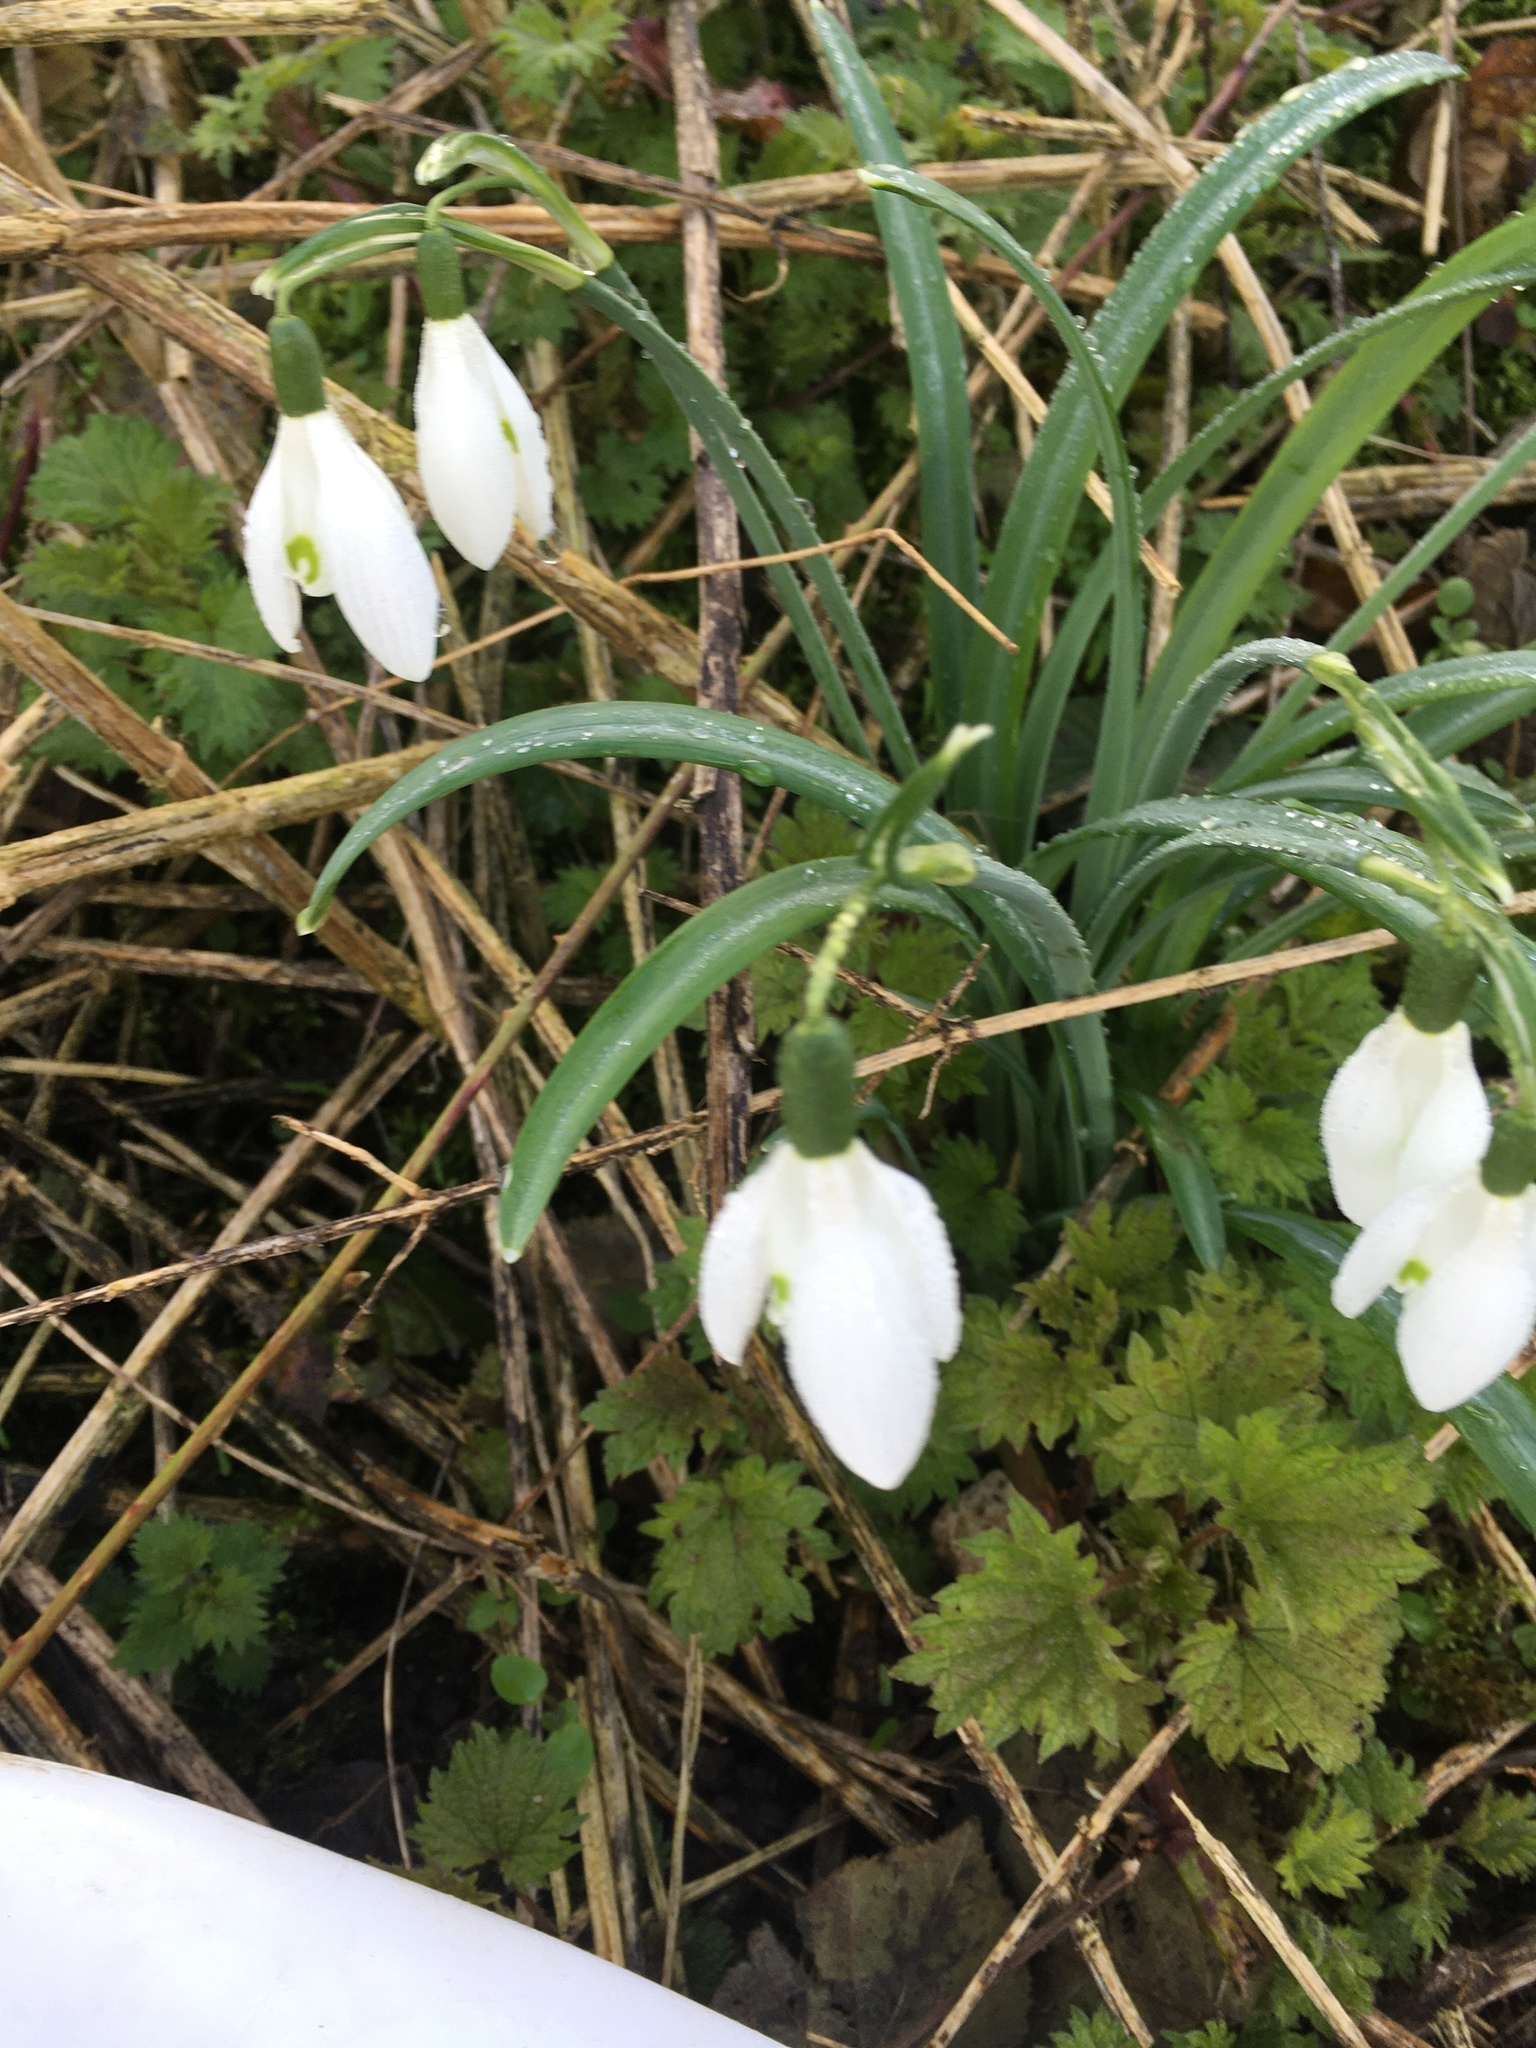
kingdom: Plantae
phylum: Tracheophyta
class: Liliopsida
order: Asparagales
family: Amaryllidaceae
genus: Galanthus
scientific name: Galanthus nivalis
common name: Snowdrop
